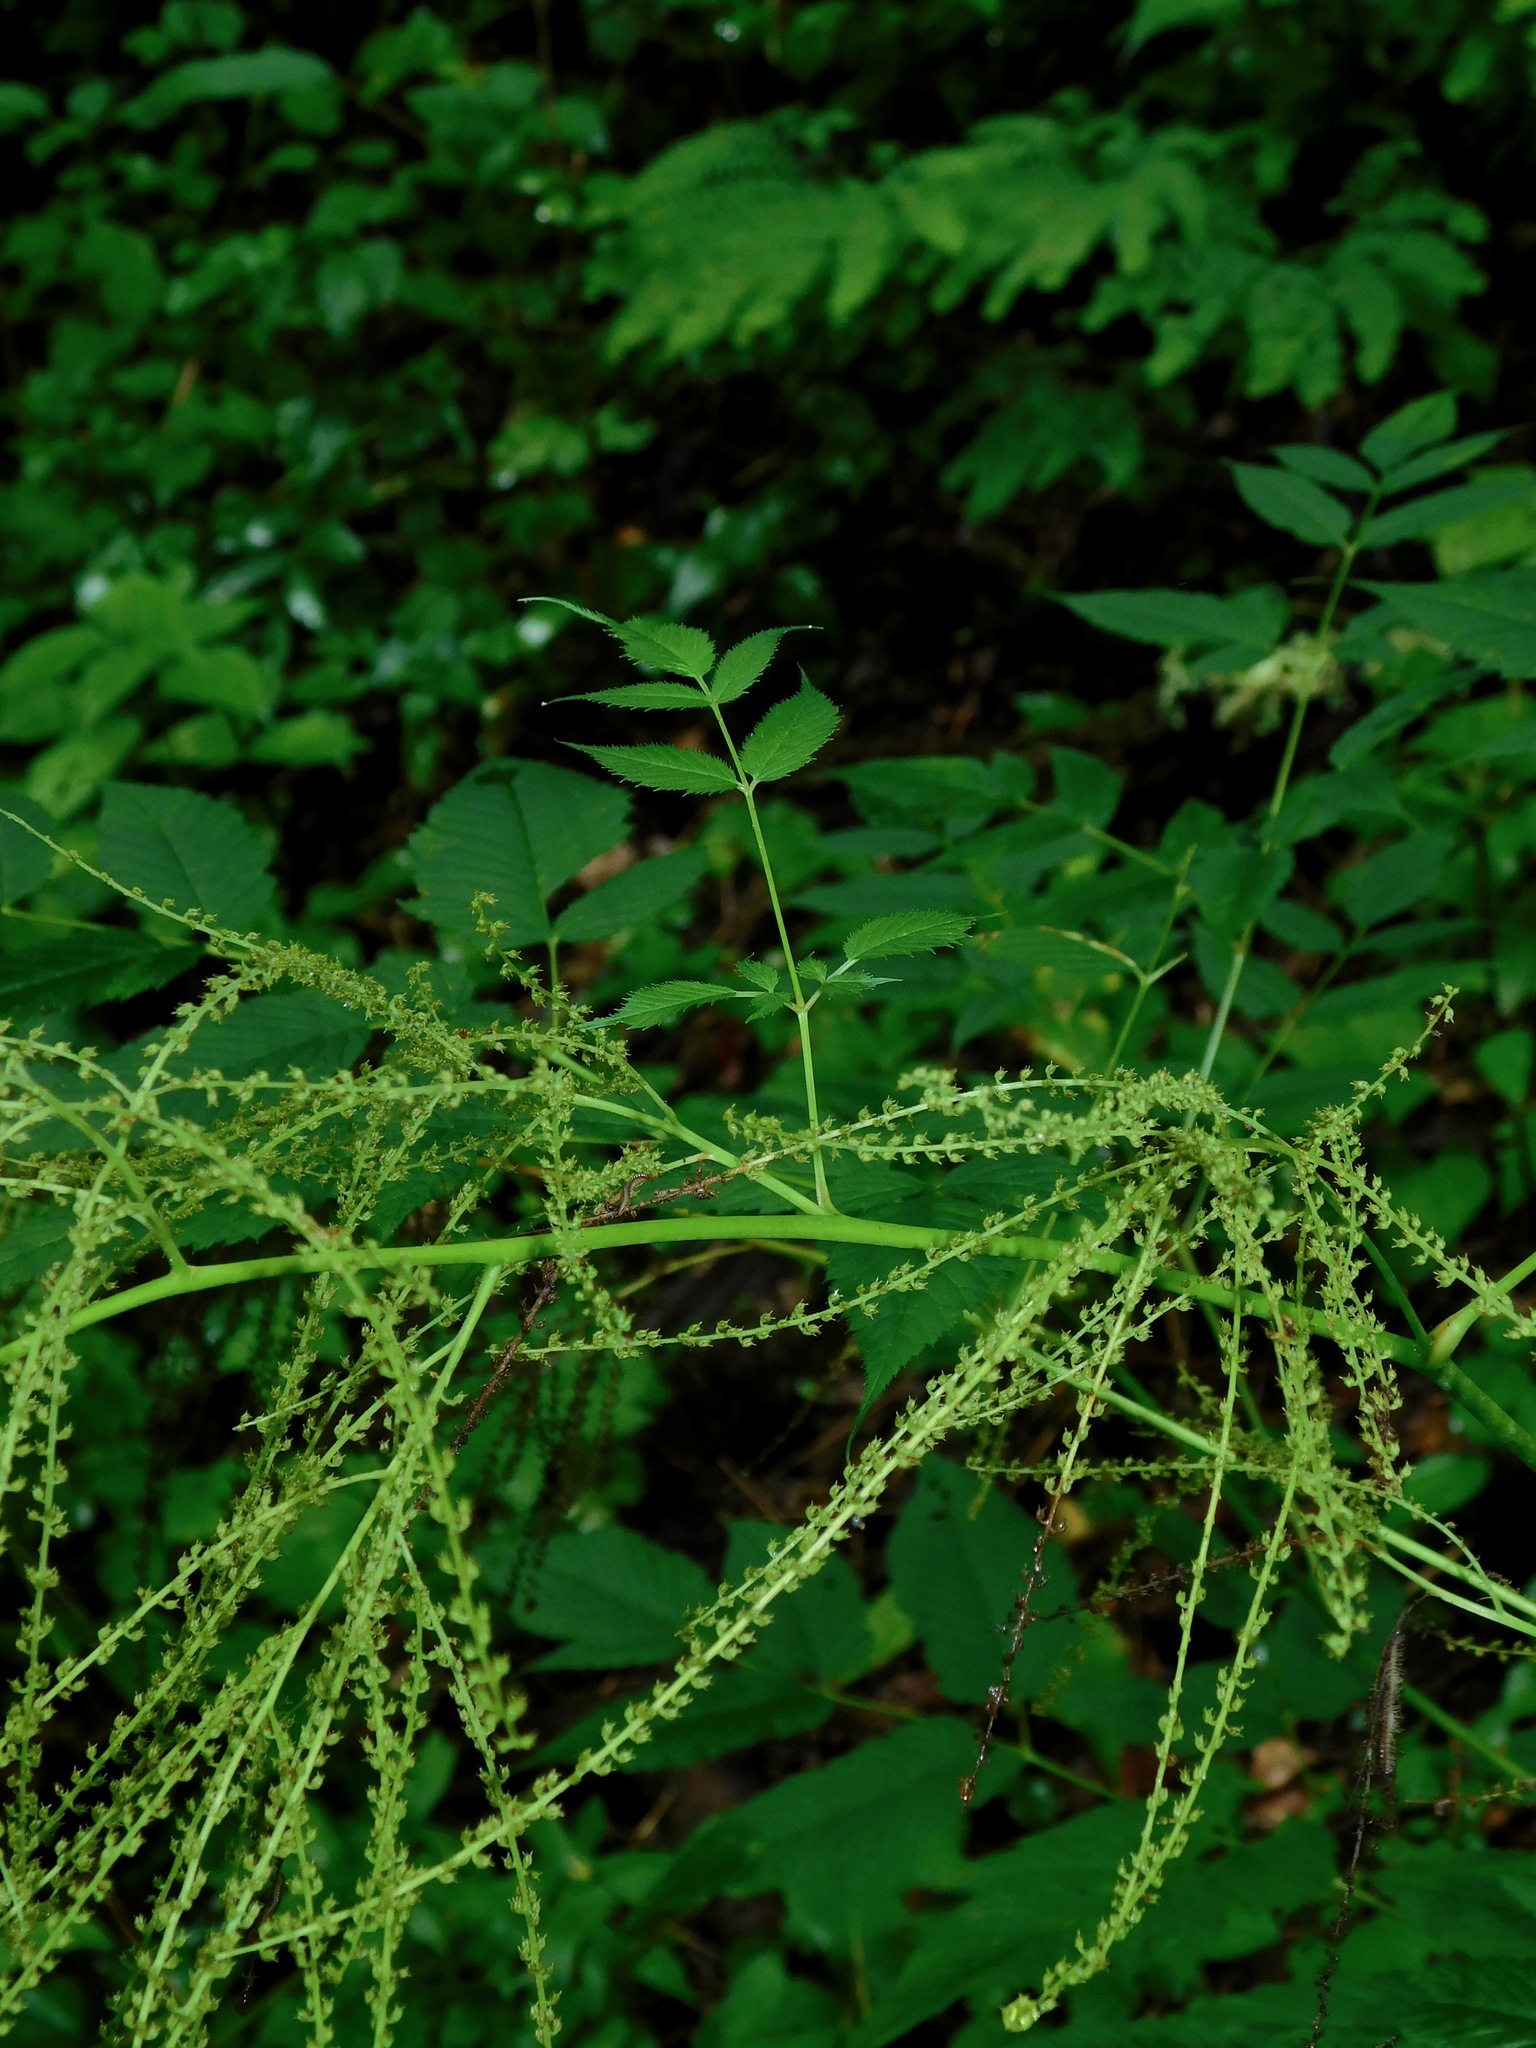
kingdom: Plantae
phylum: Tracheophyta
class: Magnoliopsida
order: Rosales
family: Rosaceae
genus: Aruncus
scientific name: Aruncus dioicus
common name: Buck's-beard
